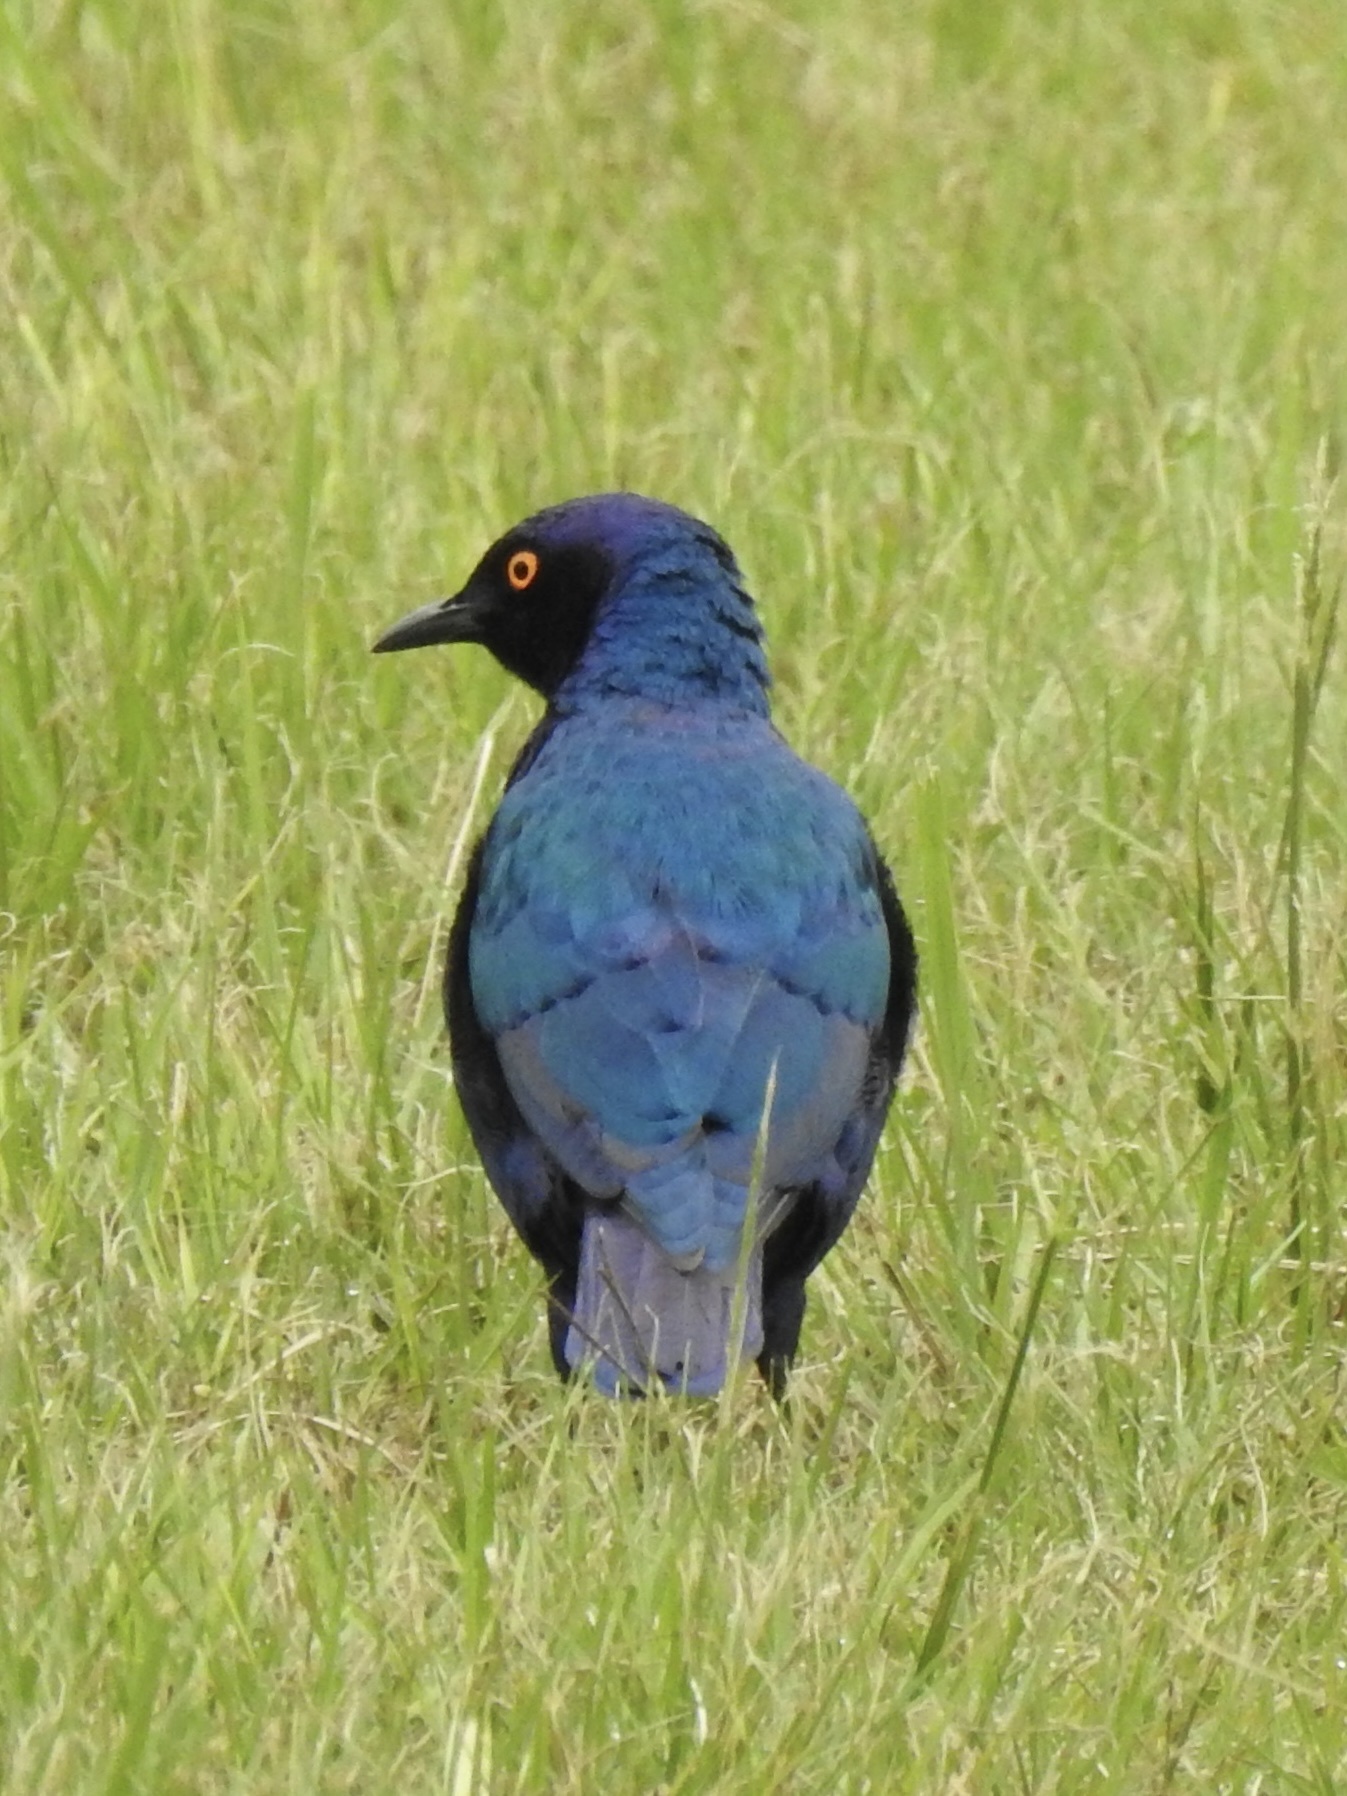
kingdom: Animalia
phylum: Chordata
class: Aves
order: Passeriformes
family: Sturnidae
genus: Lamprotornis
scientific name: Lamprotornis nitens
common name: Cape starling
